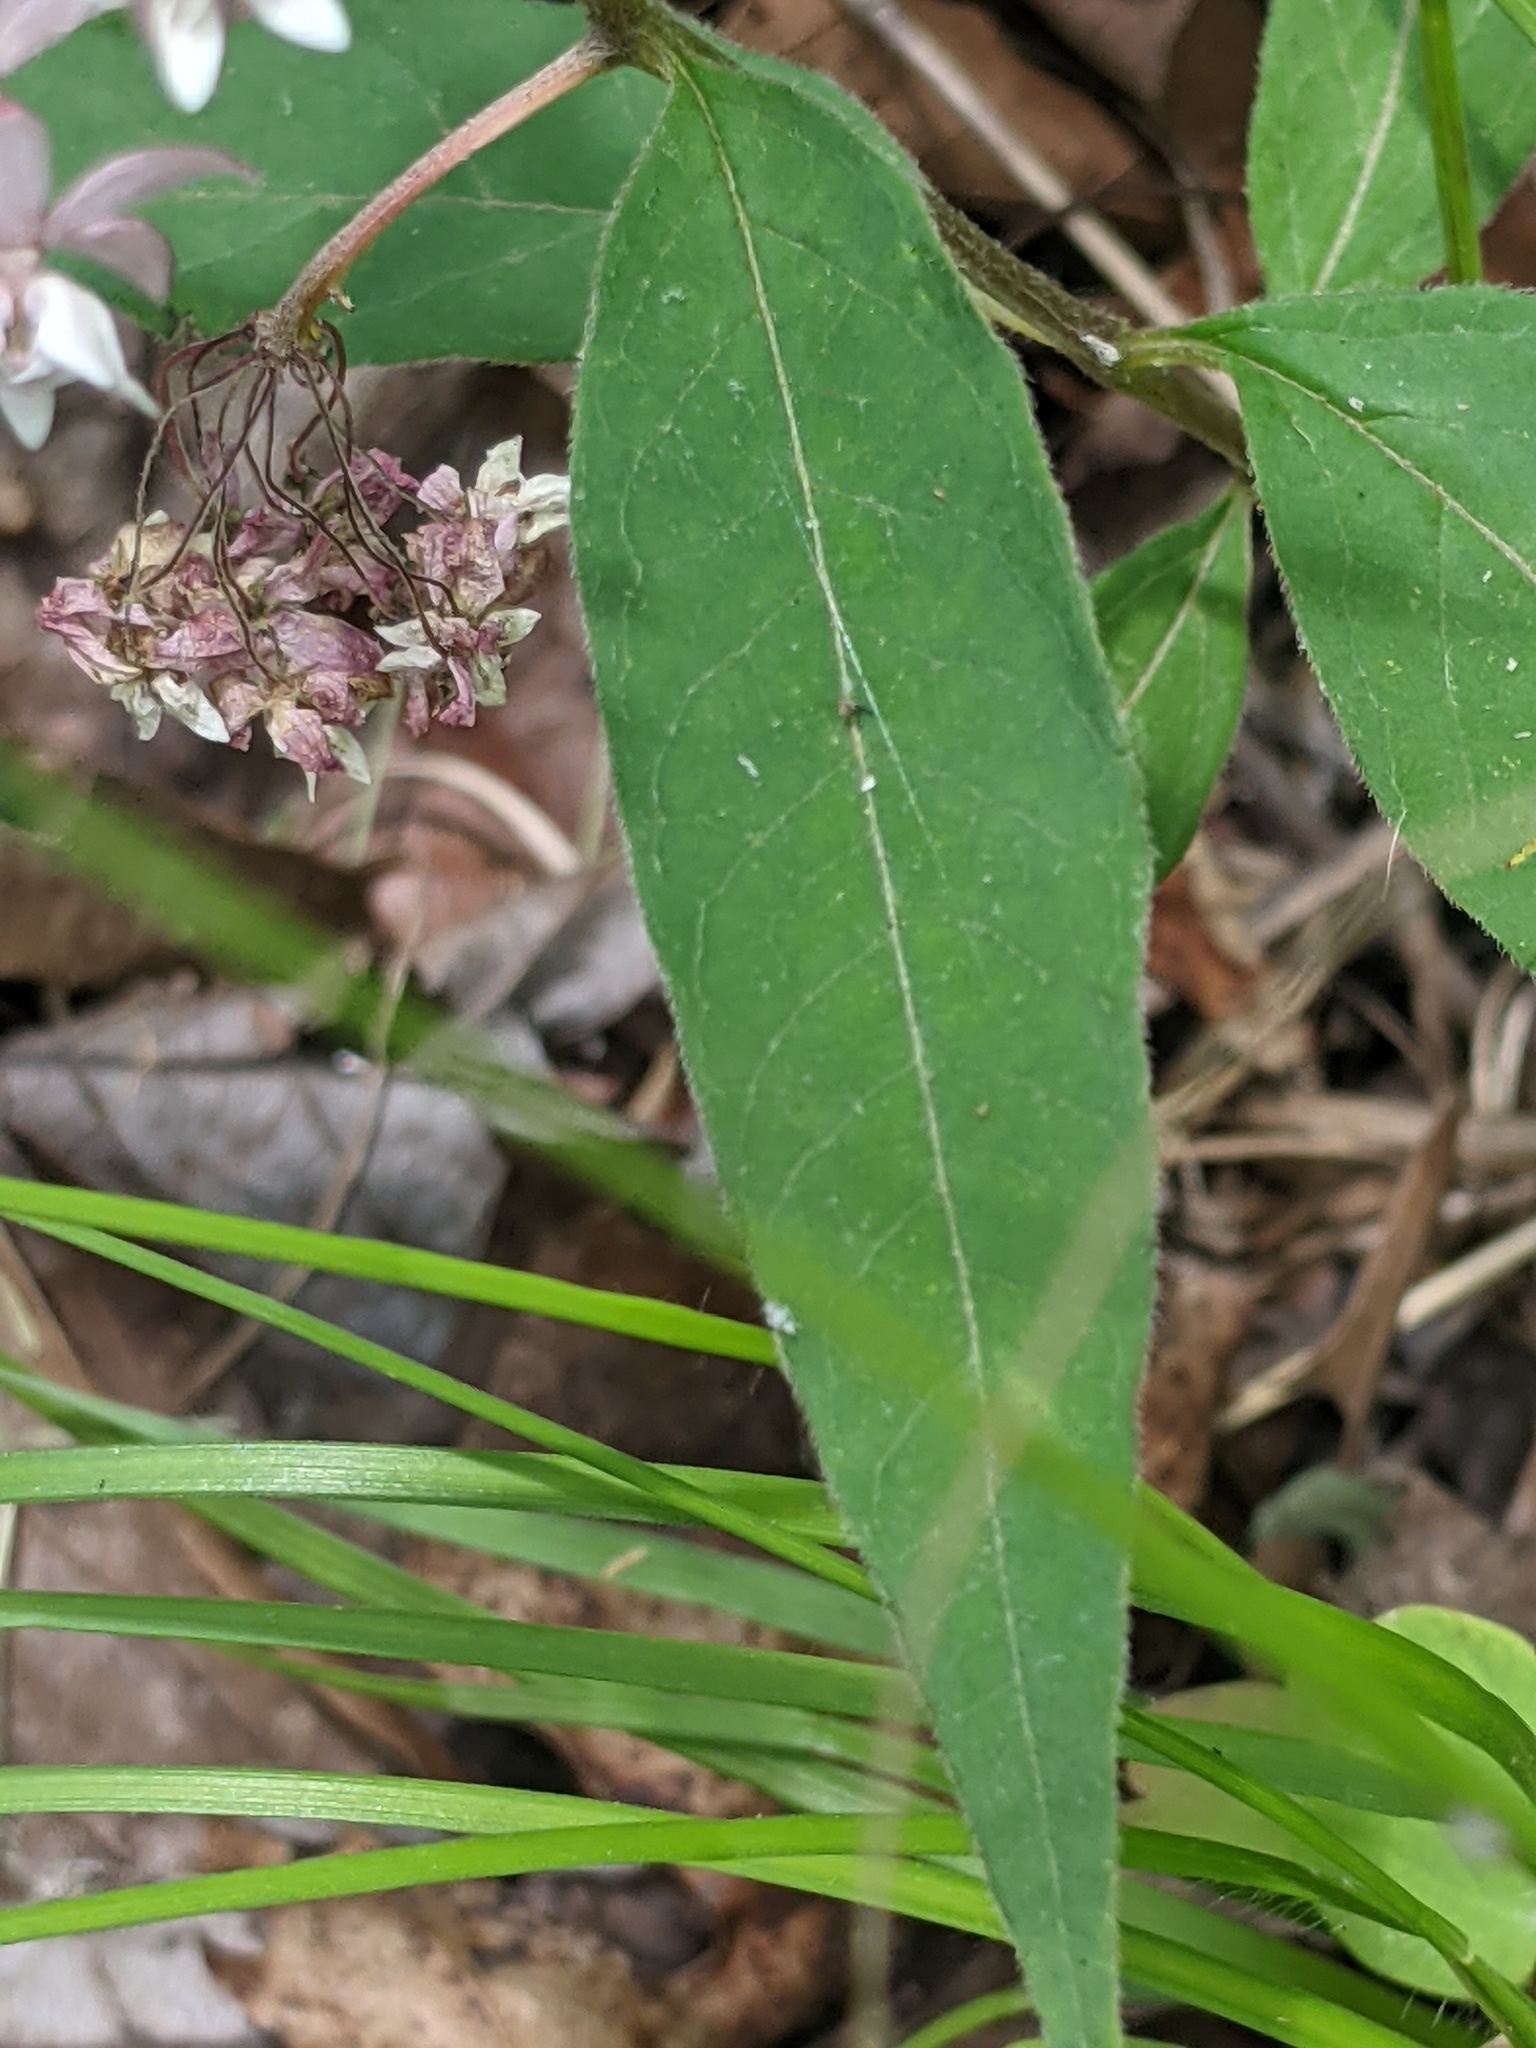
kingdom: Plantae
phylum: Tracheophyta
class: Magnoliopsida
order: Gentianales
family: Apocynaceae
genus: Asclepias
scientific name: Asclepias quadrifolia
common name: Whorled milkweed
